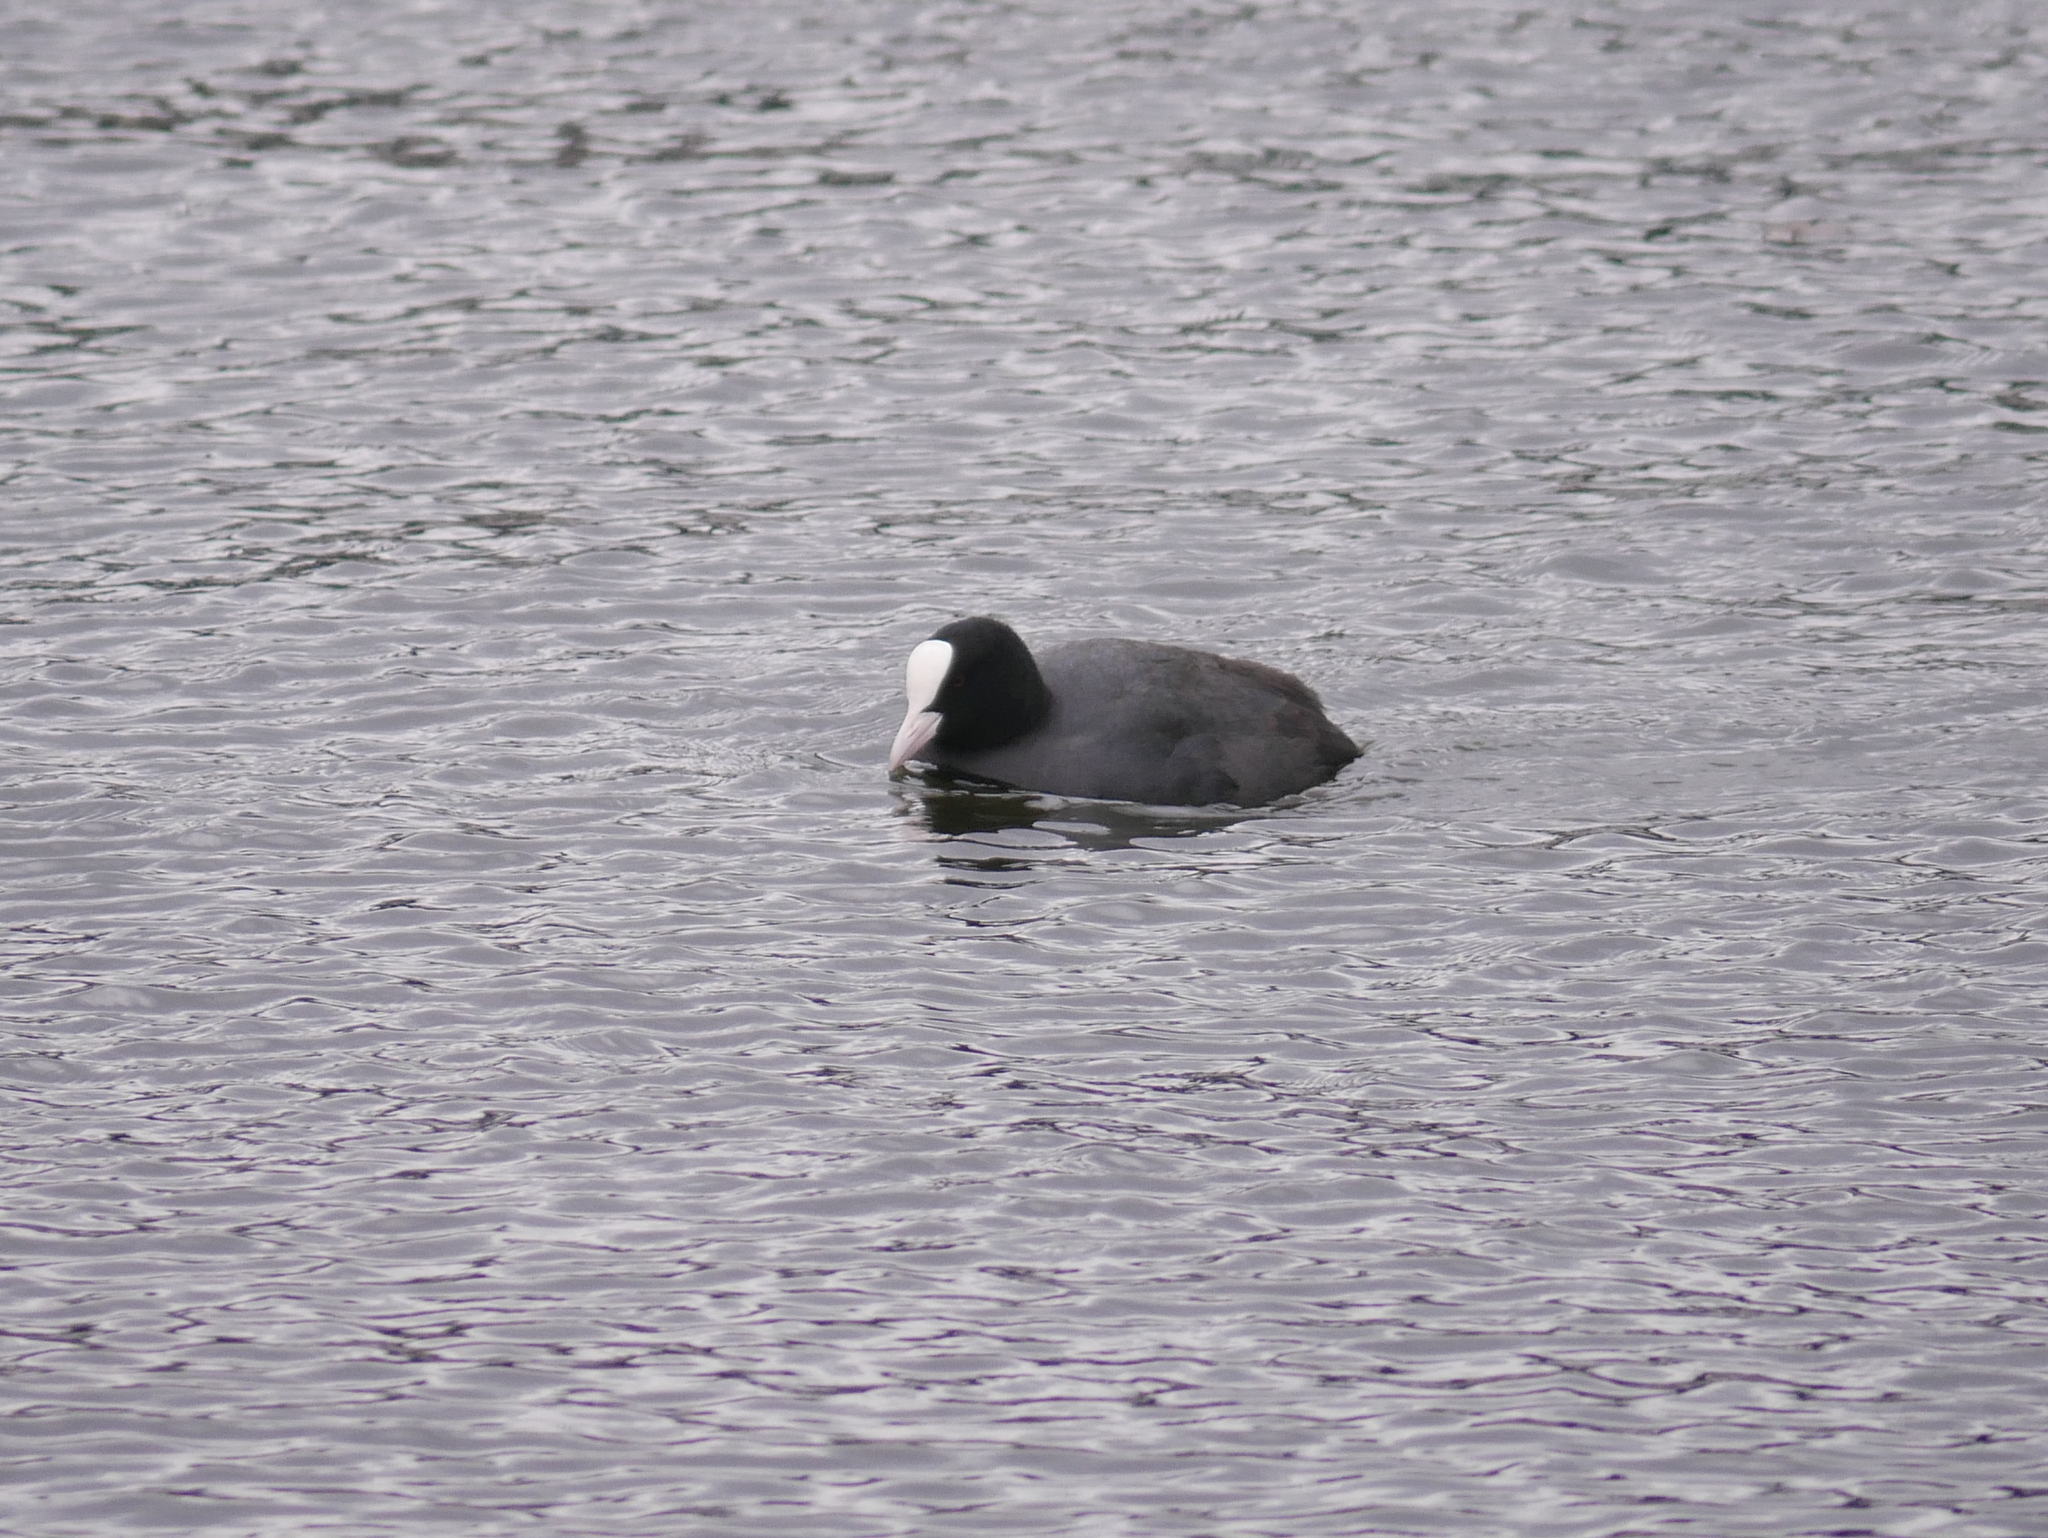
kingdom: Animalia
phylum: Chordata
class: Aves
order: Gruiformes
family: Rallidae
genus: Fulica
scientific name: Fulica atra
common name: Eurasian coot
